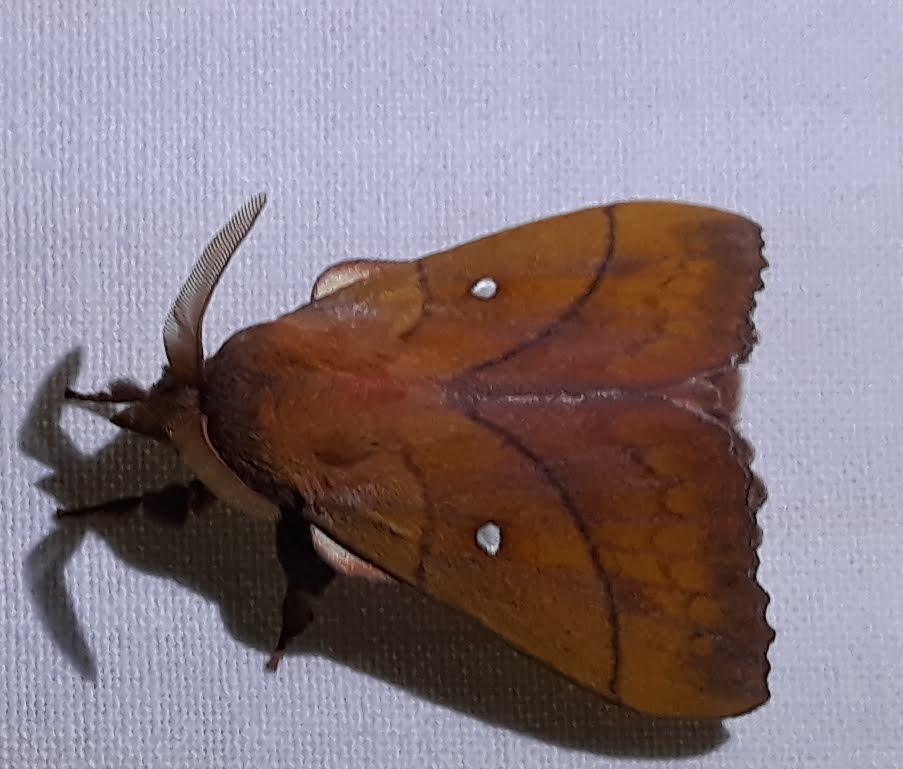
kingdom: Animalia
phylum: Arthropoda
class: Insecta
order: Lepidoptera
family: Lasiocampidae
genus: Odonestis
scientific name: Odonestis pruni
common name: Plum lappet
